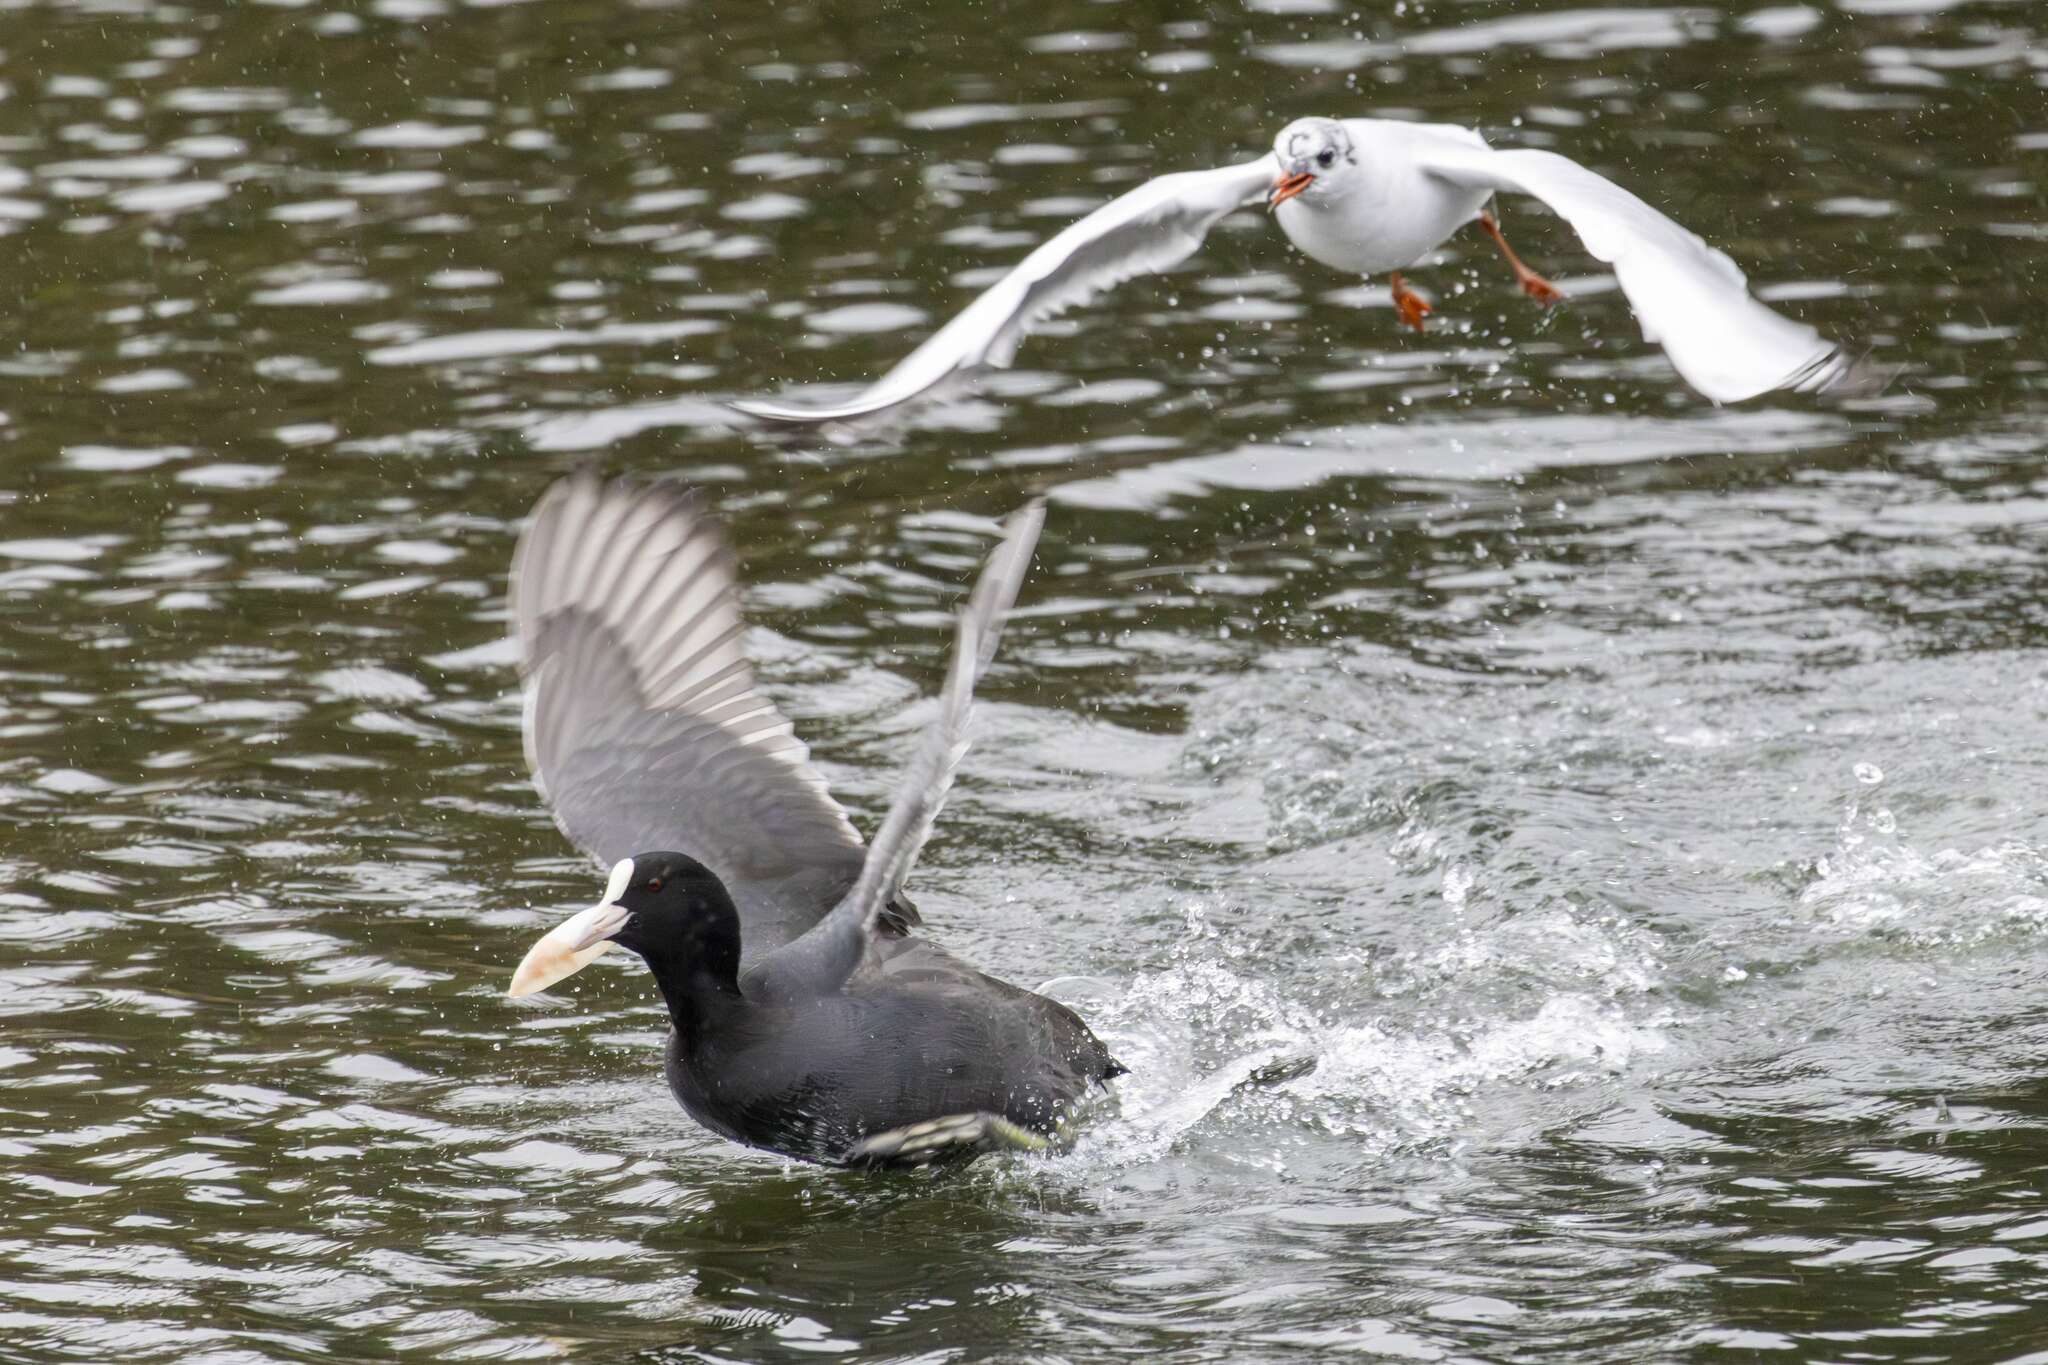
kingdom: Animalia
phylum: Chordata
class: Aves
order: Charadriiformes
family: Laridae
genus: Chroicocephalus
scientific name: Chroicocephalus ridibundus
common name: Black-headed gull
